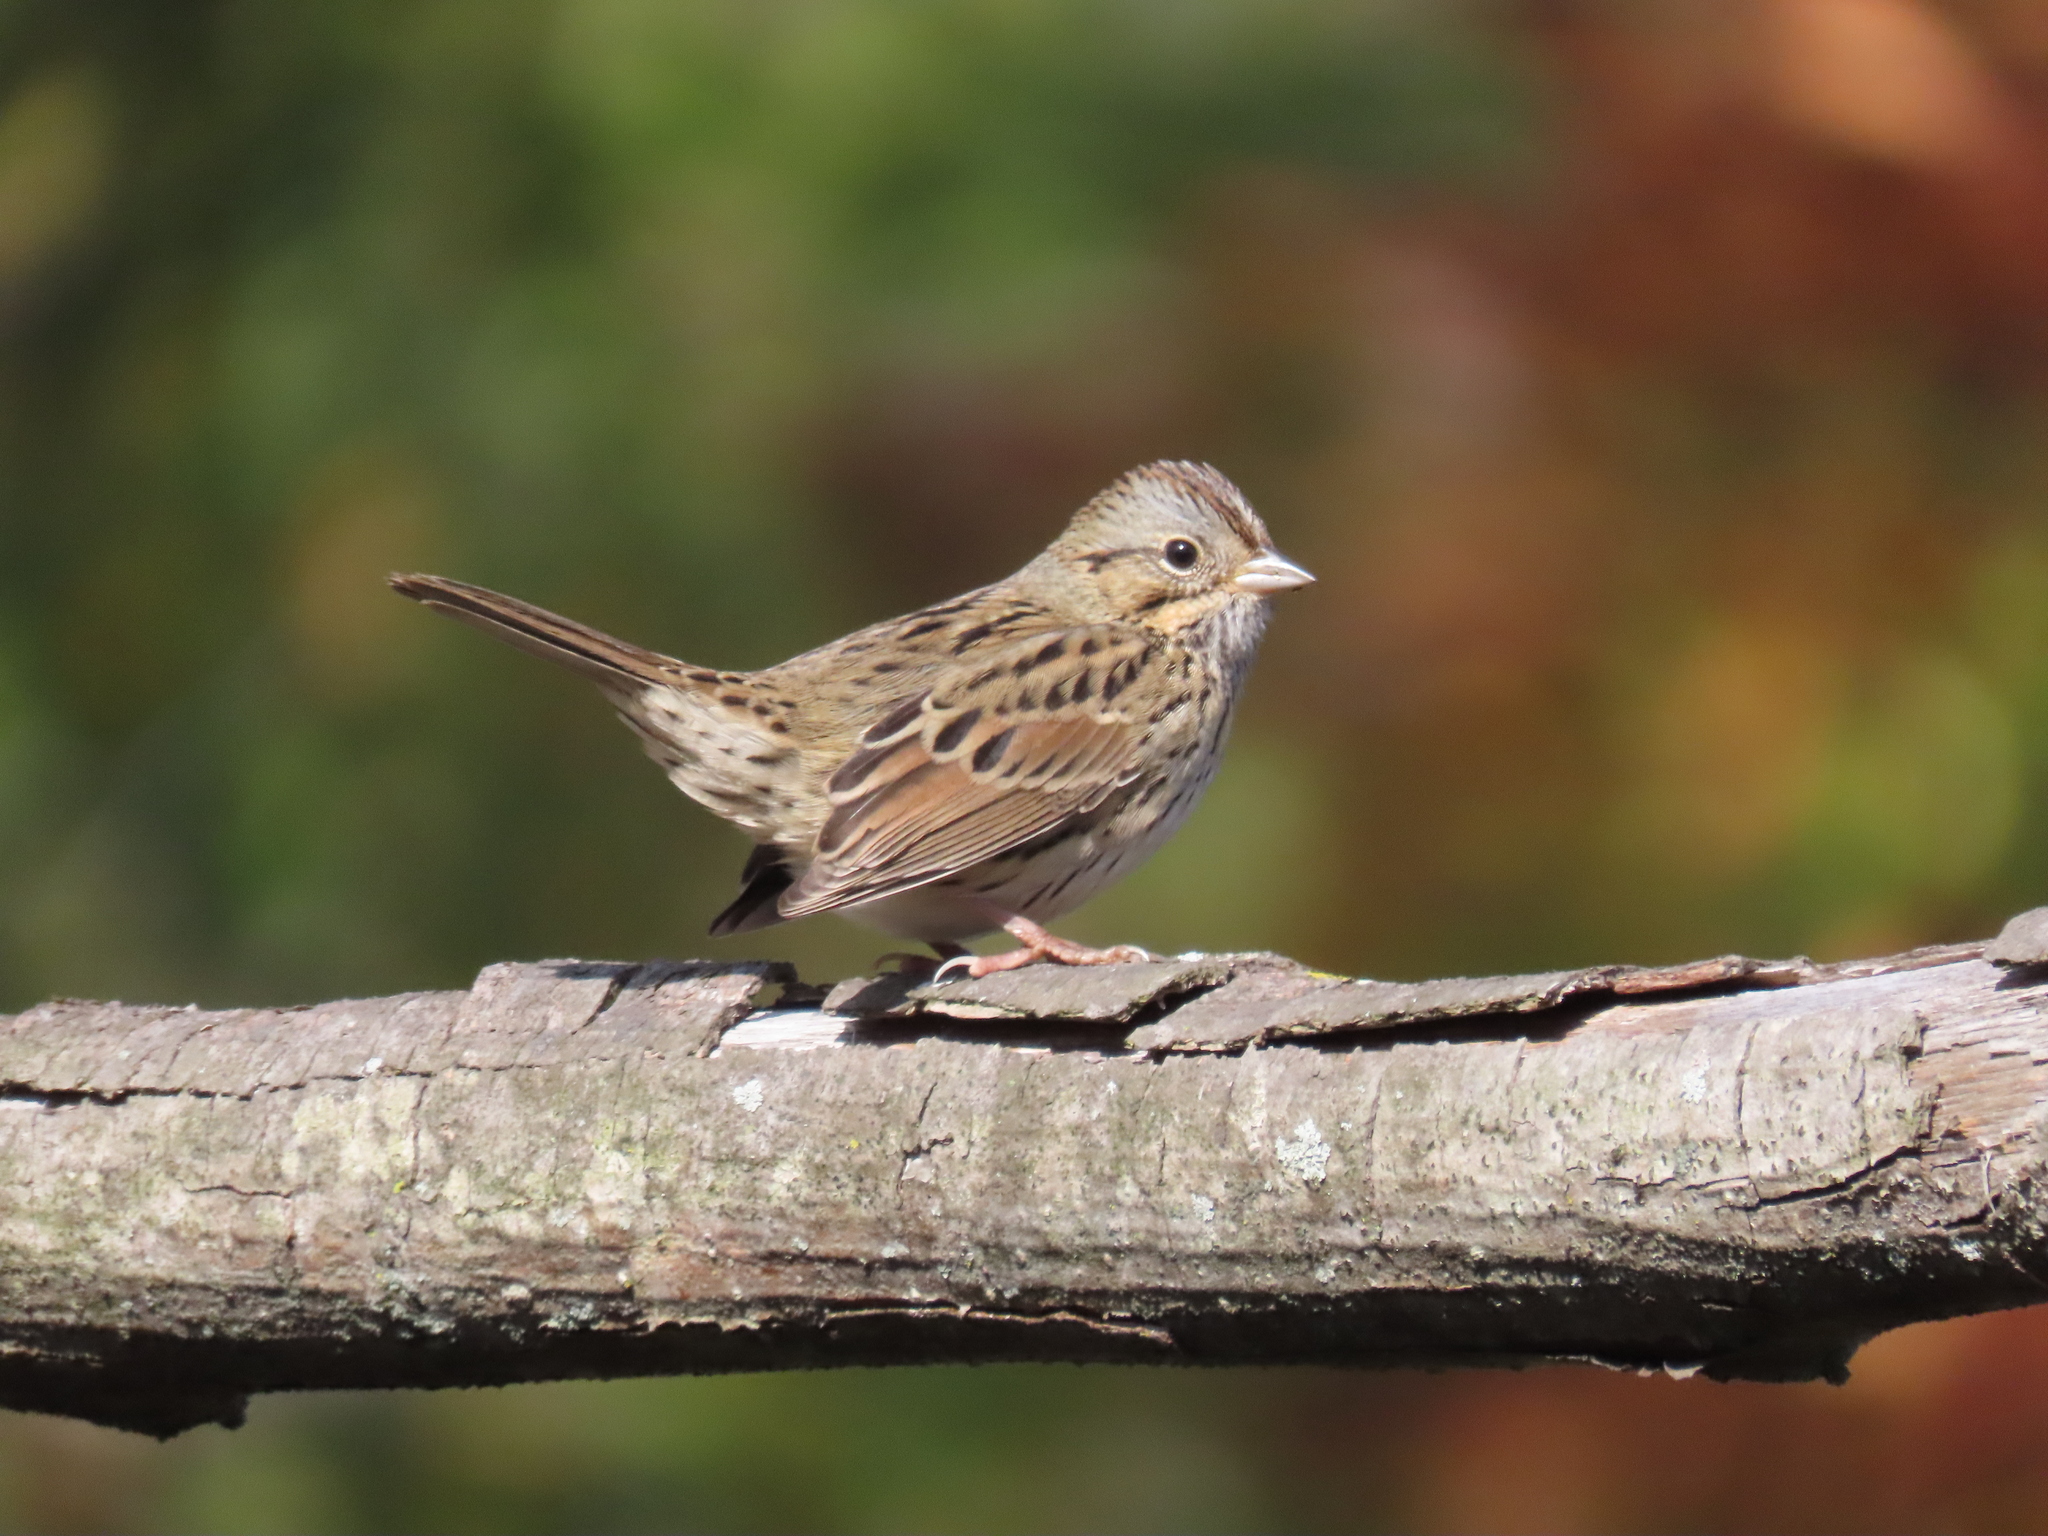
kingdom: Animalia
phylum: Chordata
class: Aves
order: Passeriformes
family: Passerellidae
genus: Melospiza
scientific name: Melospiza lincolnii
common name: Lincoln's sparrow
